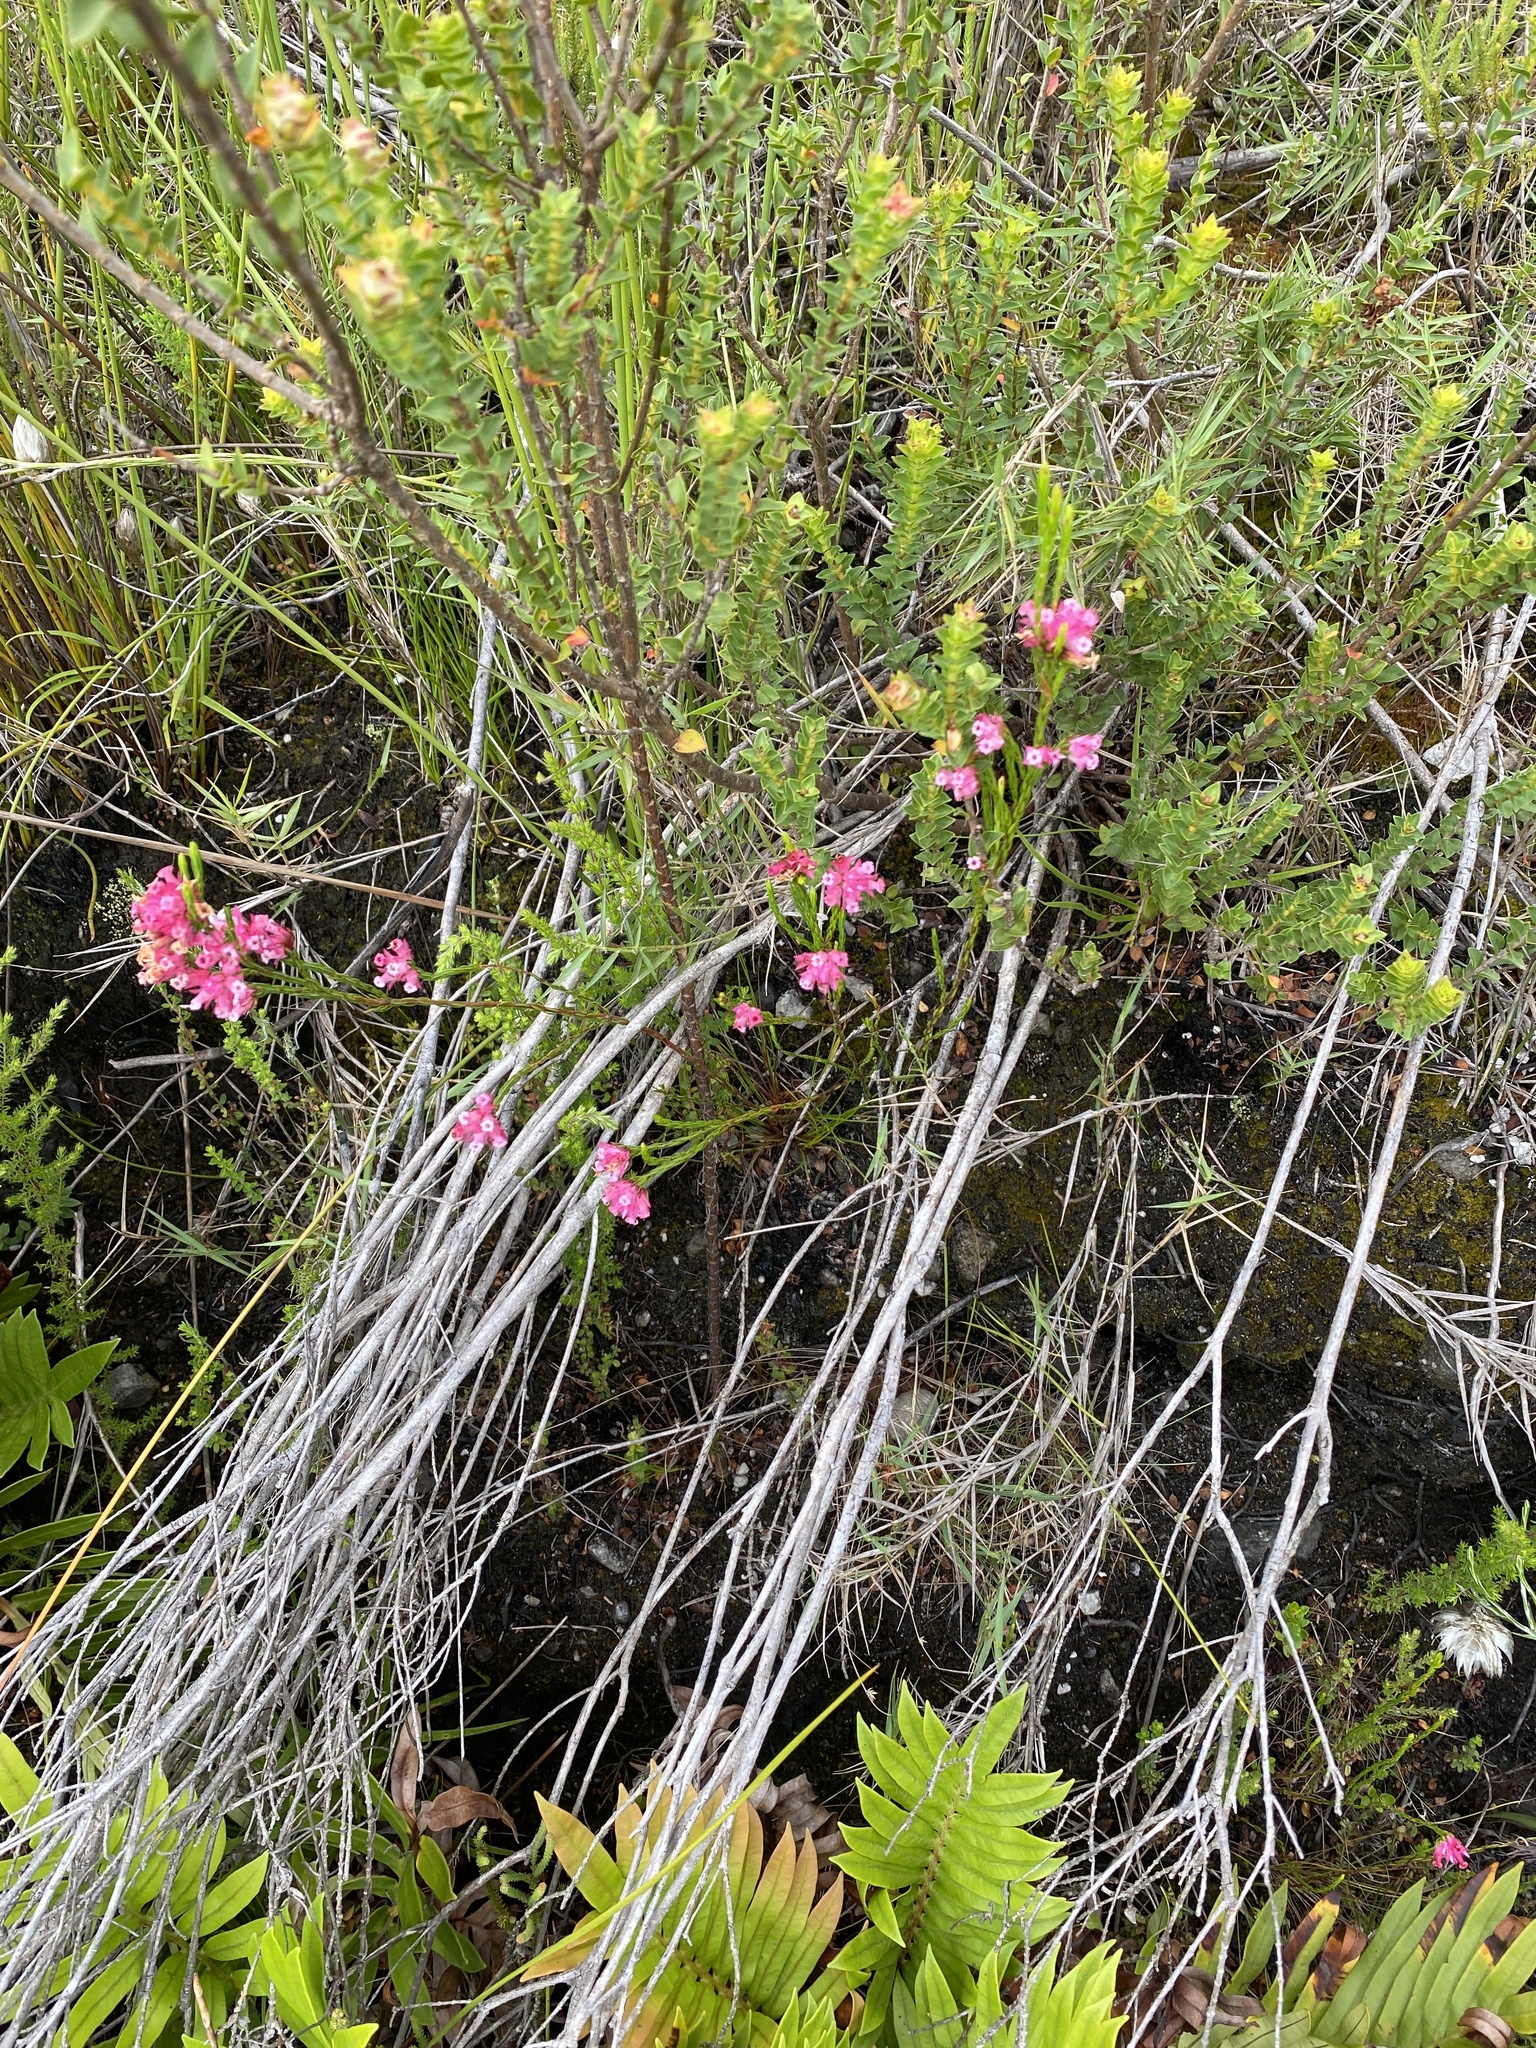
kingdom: Plantae
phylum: Tracheophyta
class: Magnoliopsida
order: Ericales
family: Ericaceae
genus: Erica
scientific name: Erica bracteolaris
